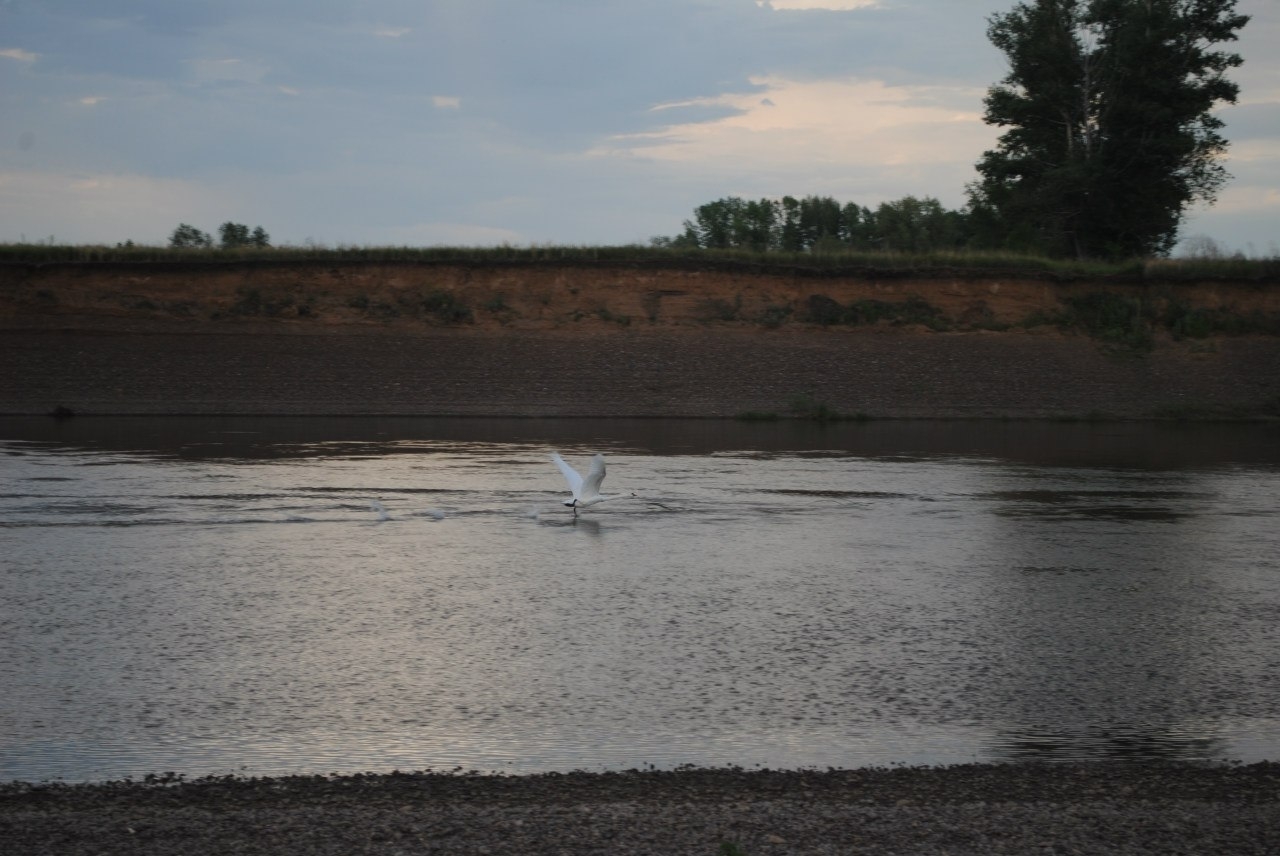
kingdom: Animalia
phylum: Chordata
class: Aves
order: Anseriformes
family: Anatidae
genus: Cygnus
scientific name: Cygnus olor
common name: Mute swan
